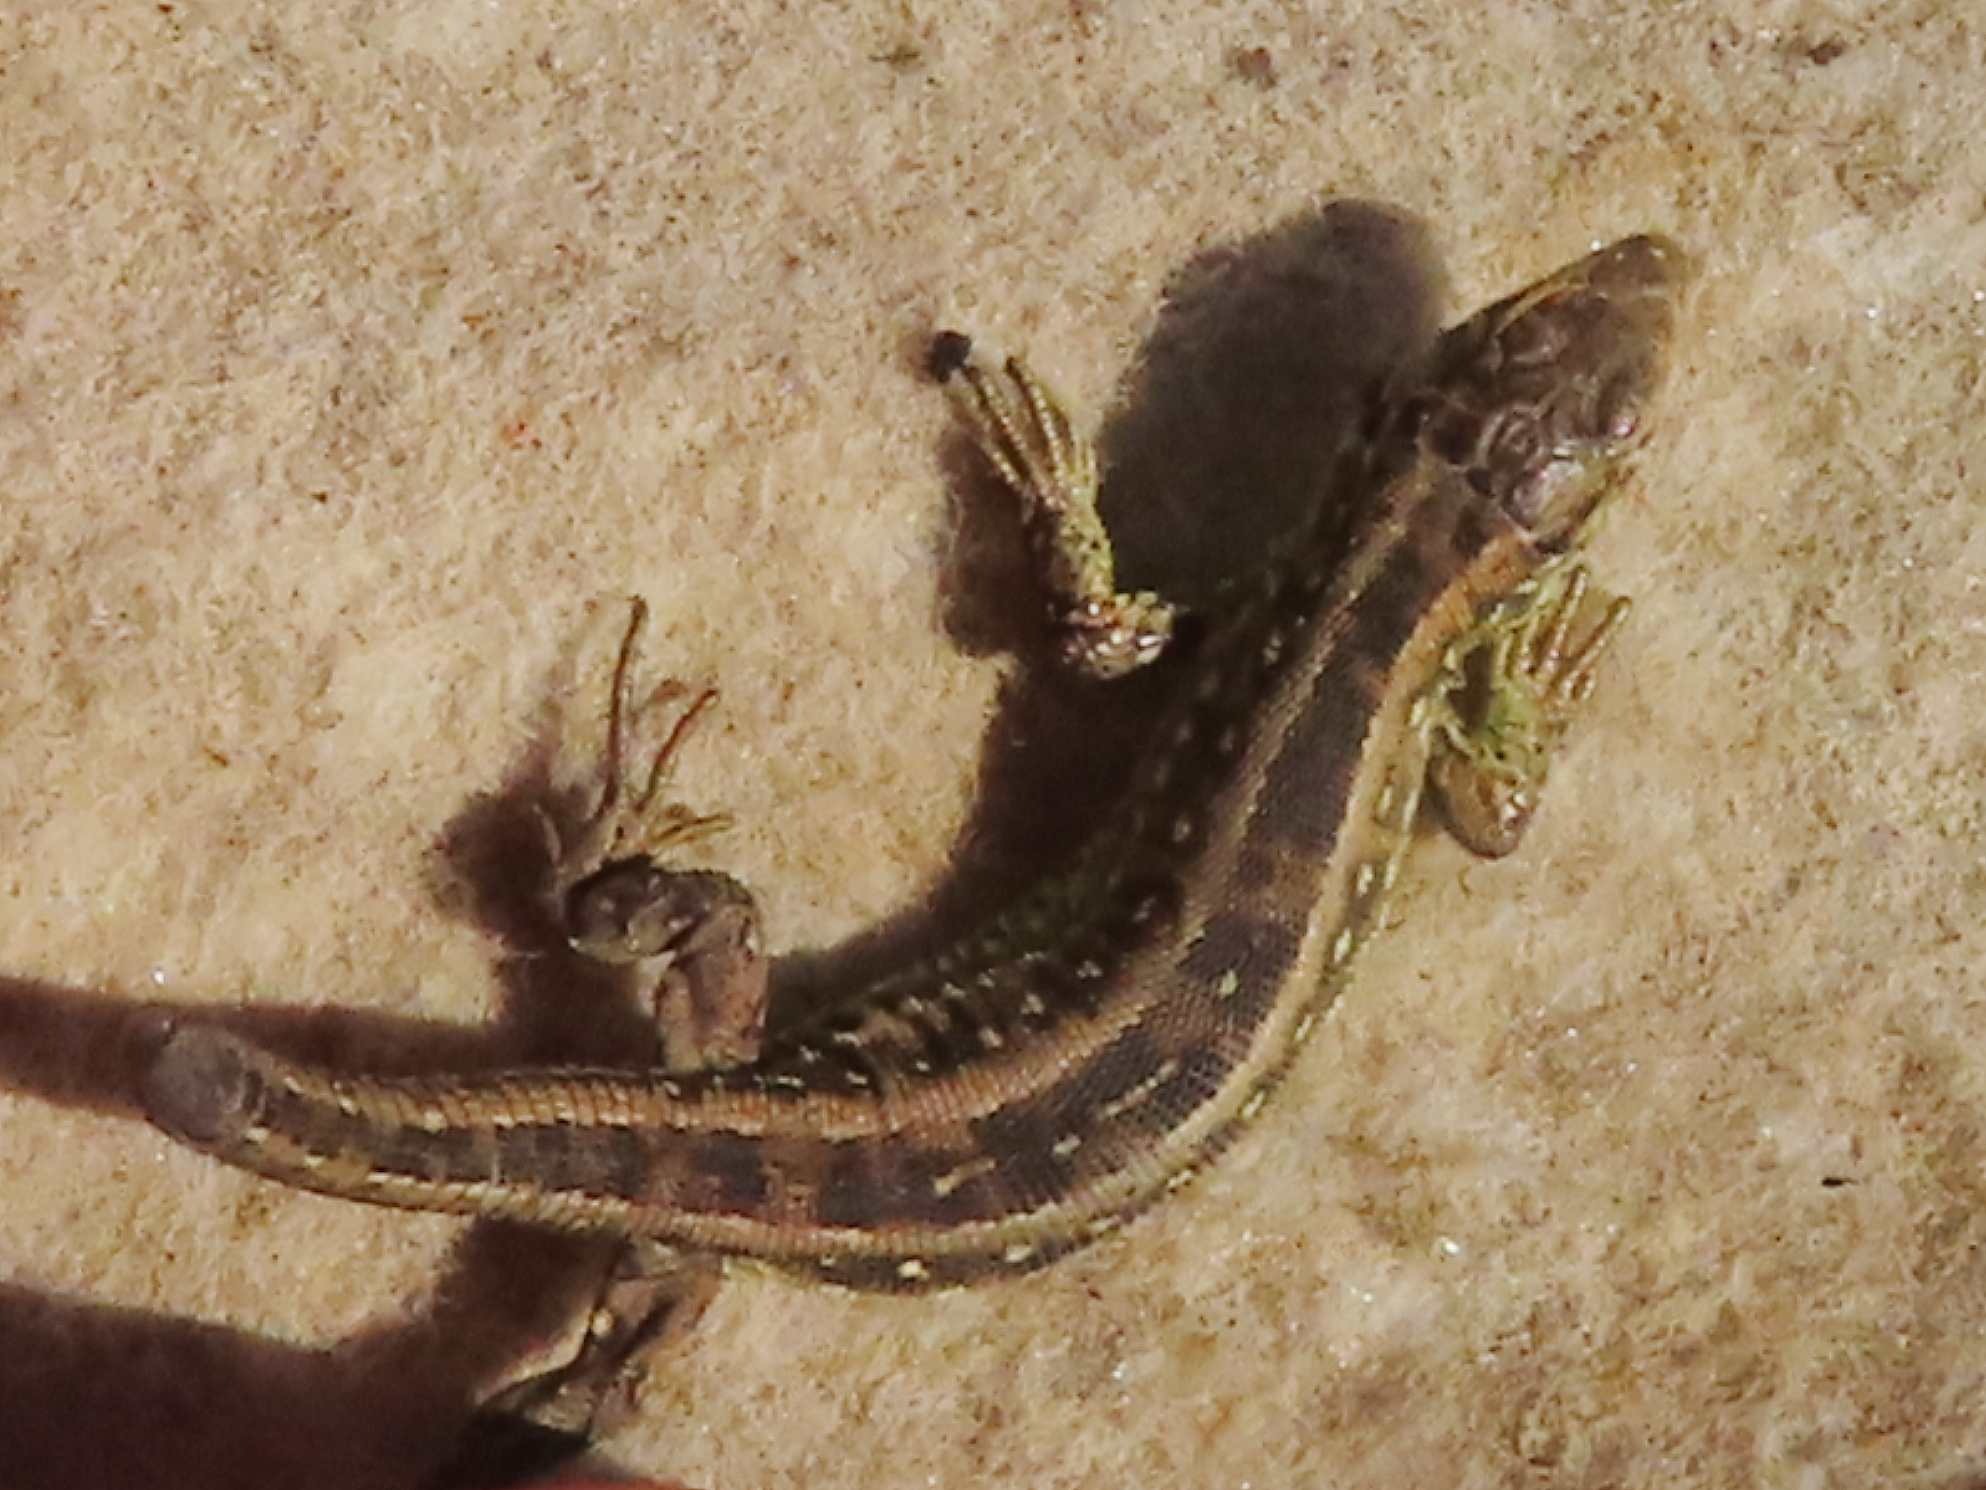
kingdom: Animalia
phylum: Chordata
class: Squamata
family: Lacertidae
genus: Lacerta
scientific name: Lacerta agilis
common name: Sand lizard
